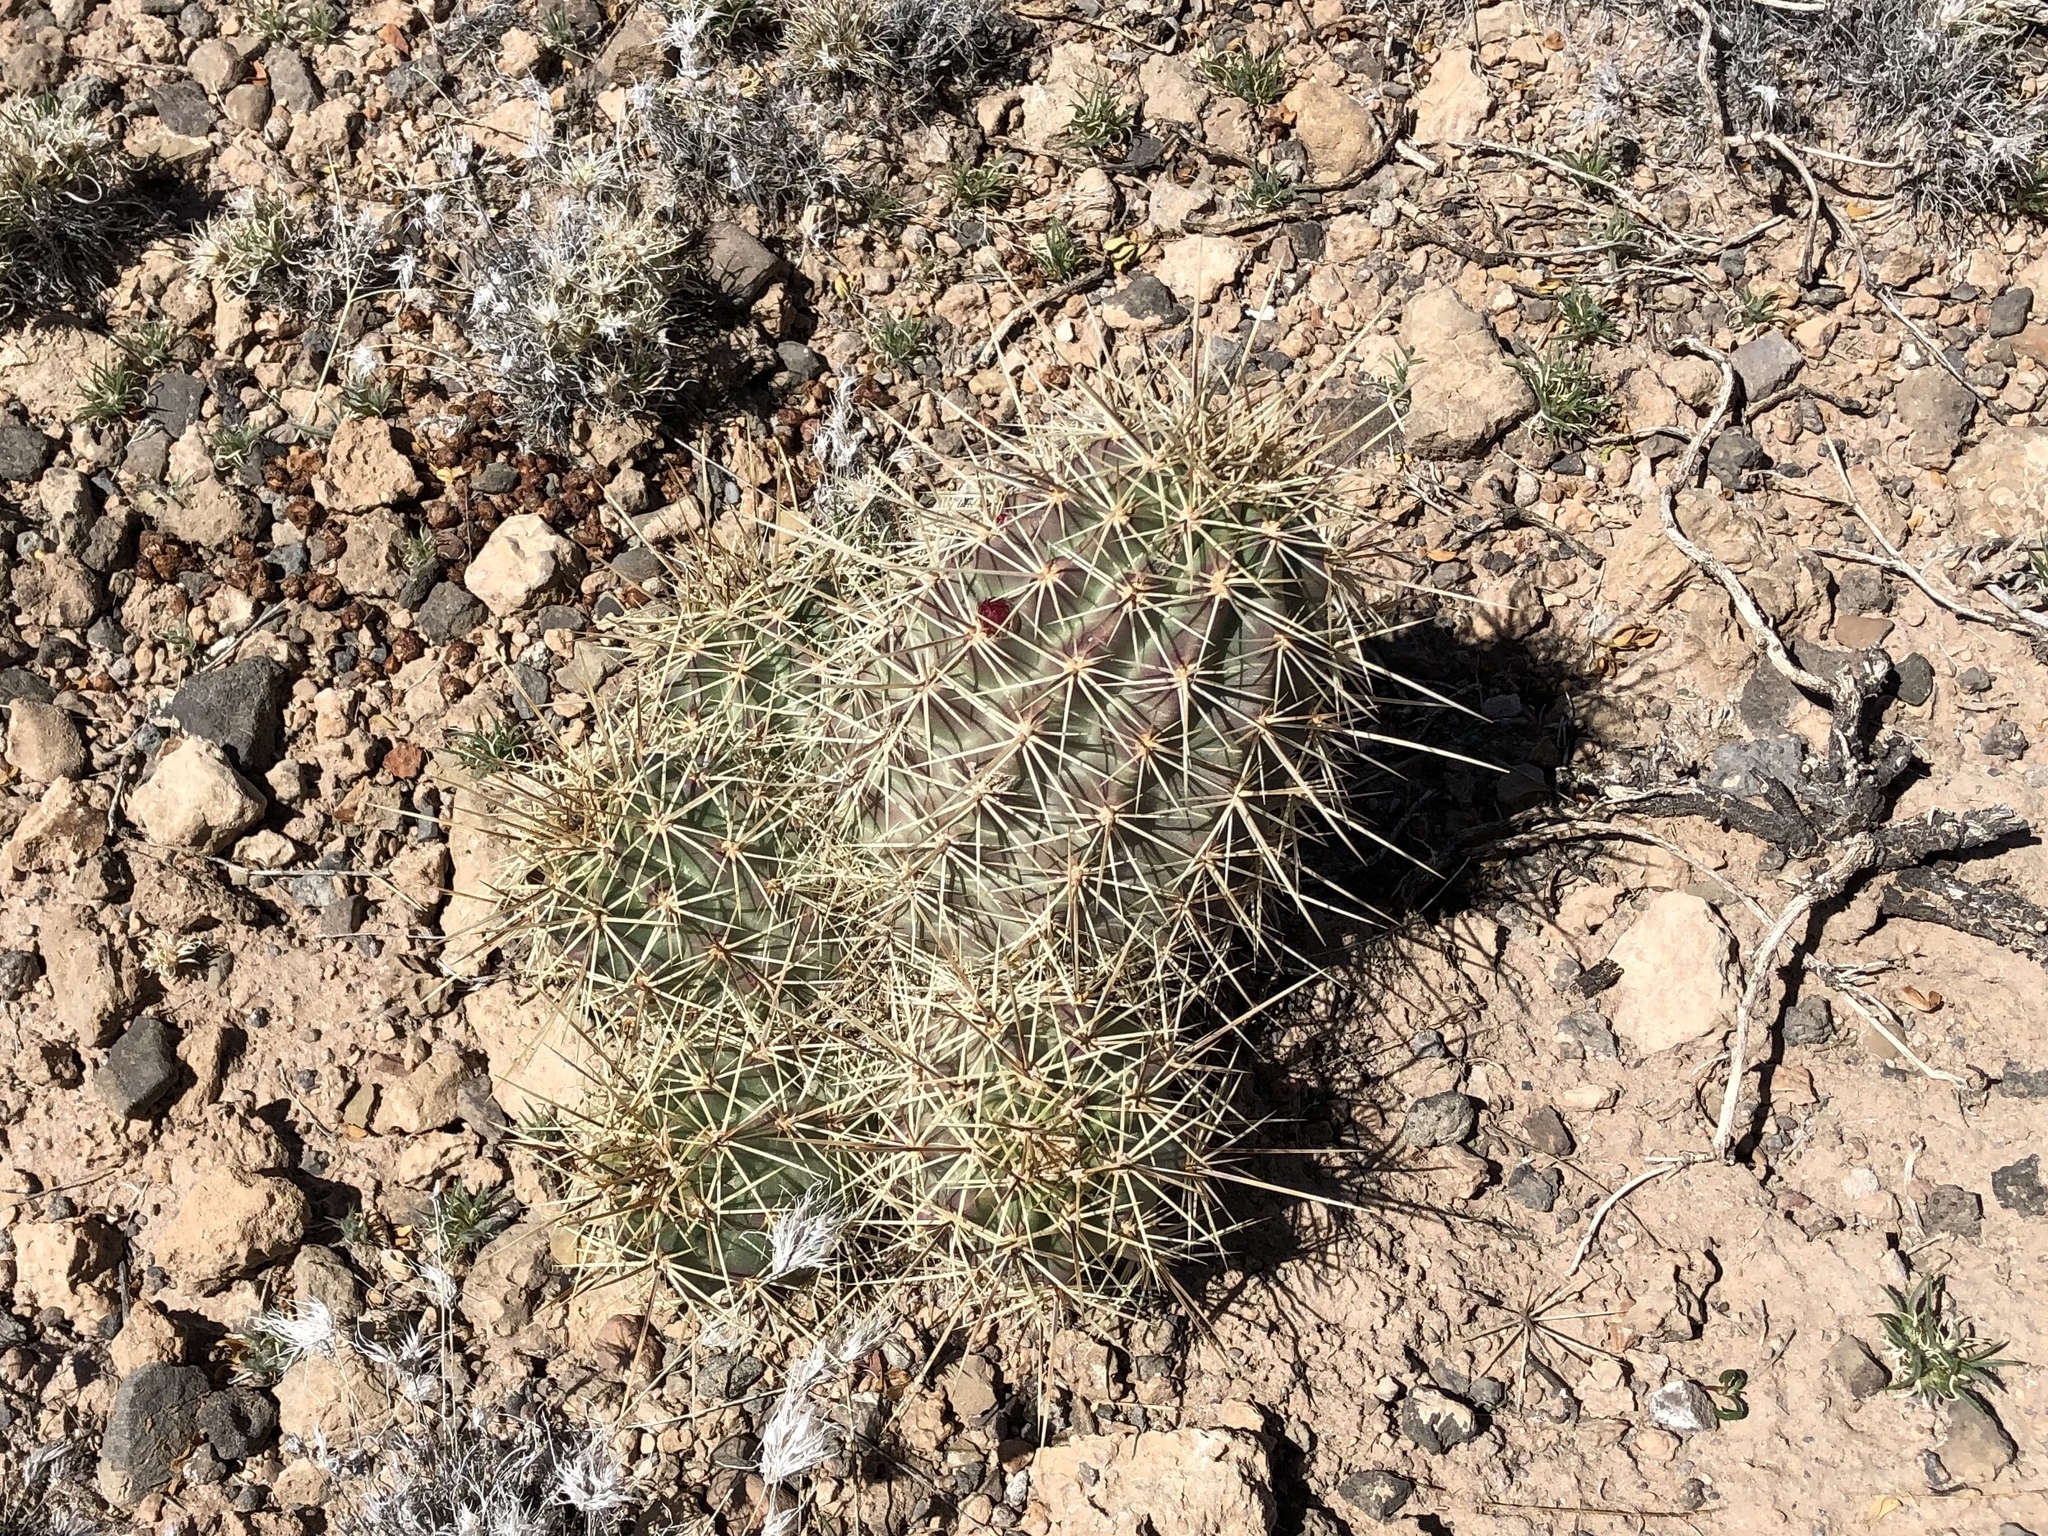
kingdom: Plantae
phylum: Tracheophyta
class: Magnoliopsida
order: Caryophyllales
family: Cactaceae
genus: Echinocereus
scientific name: Echinocereus coccineus
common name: Scarlet hedgehog cactus
